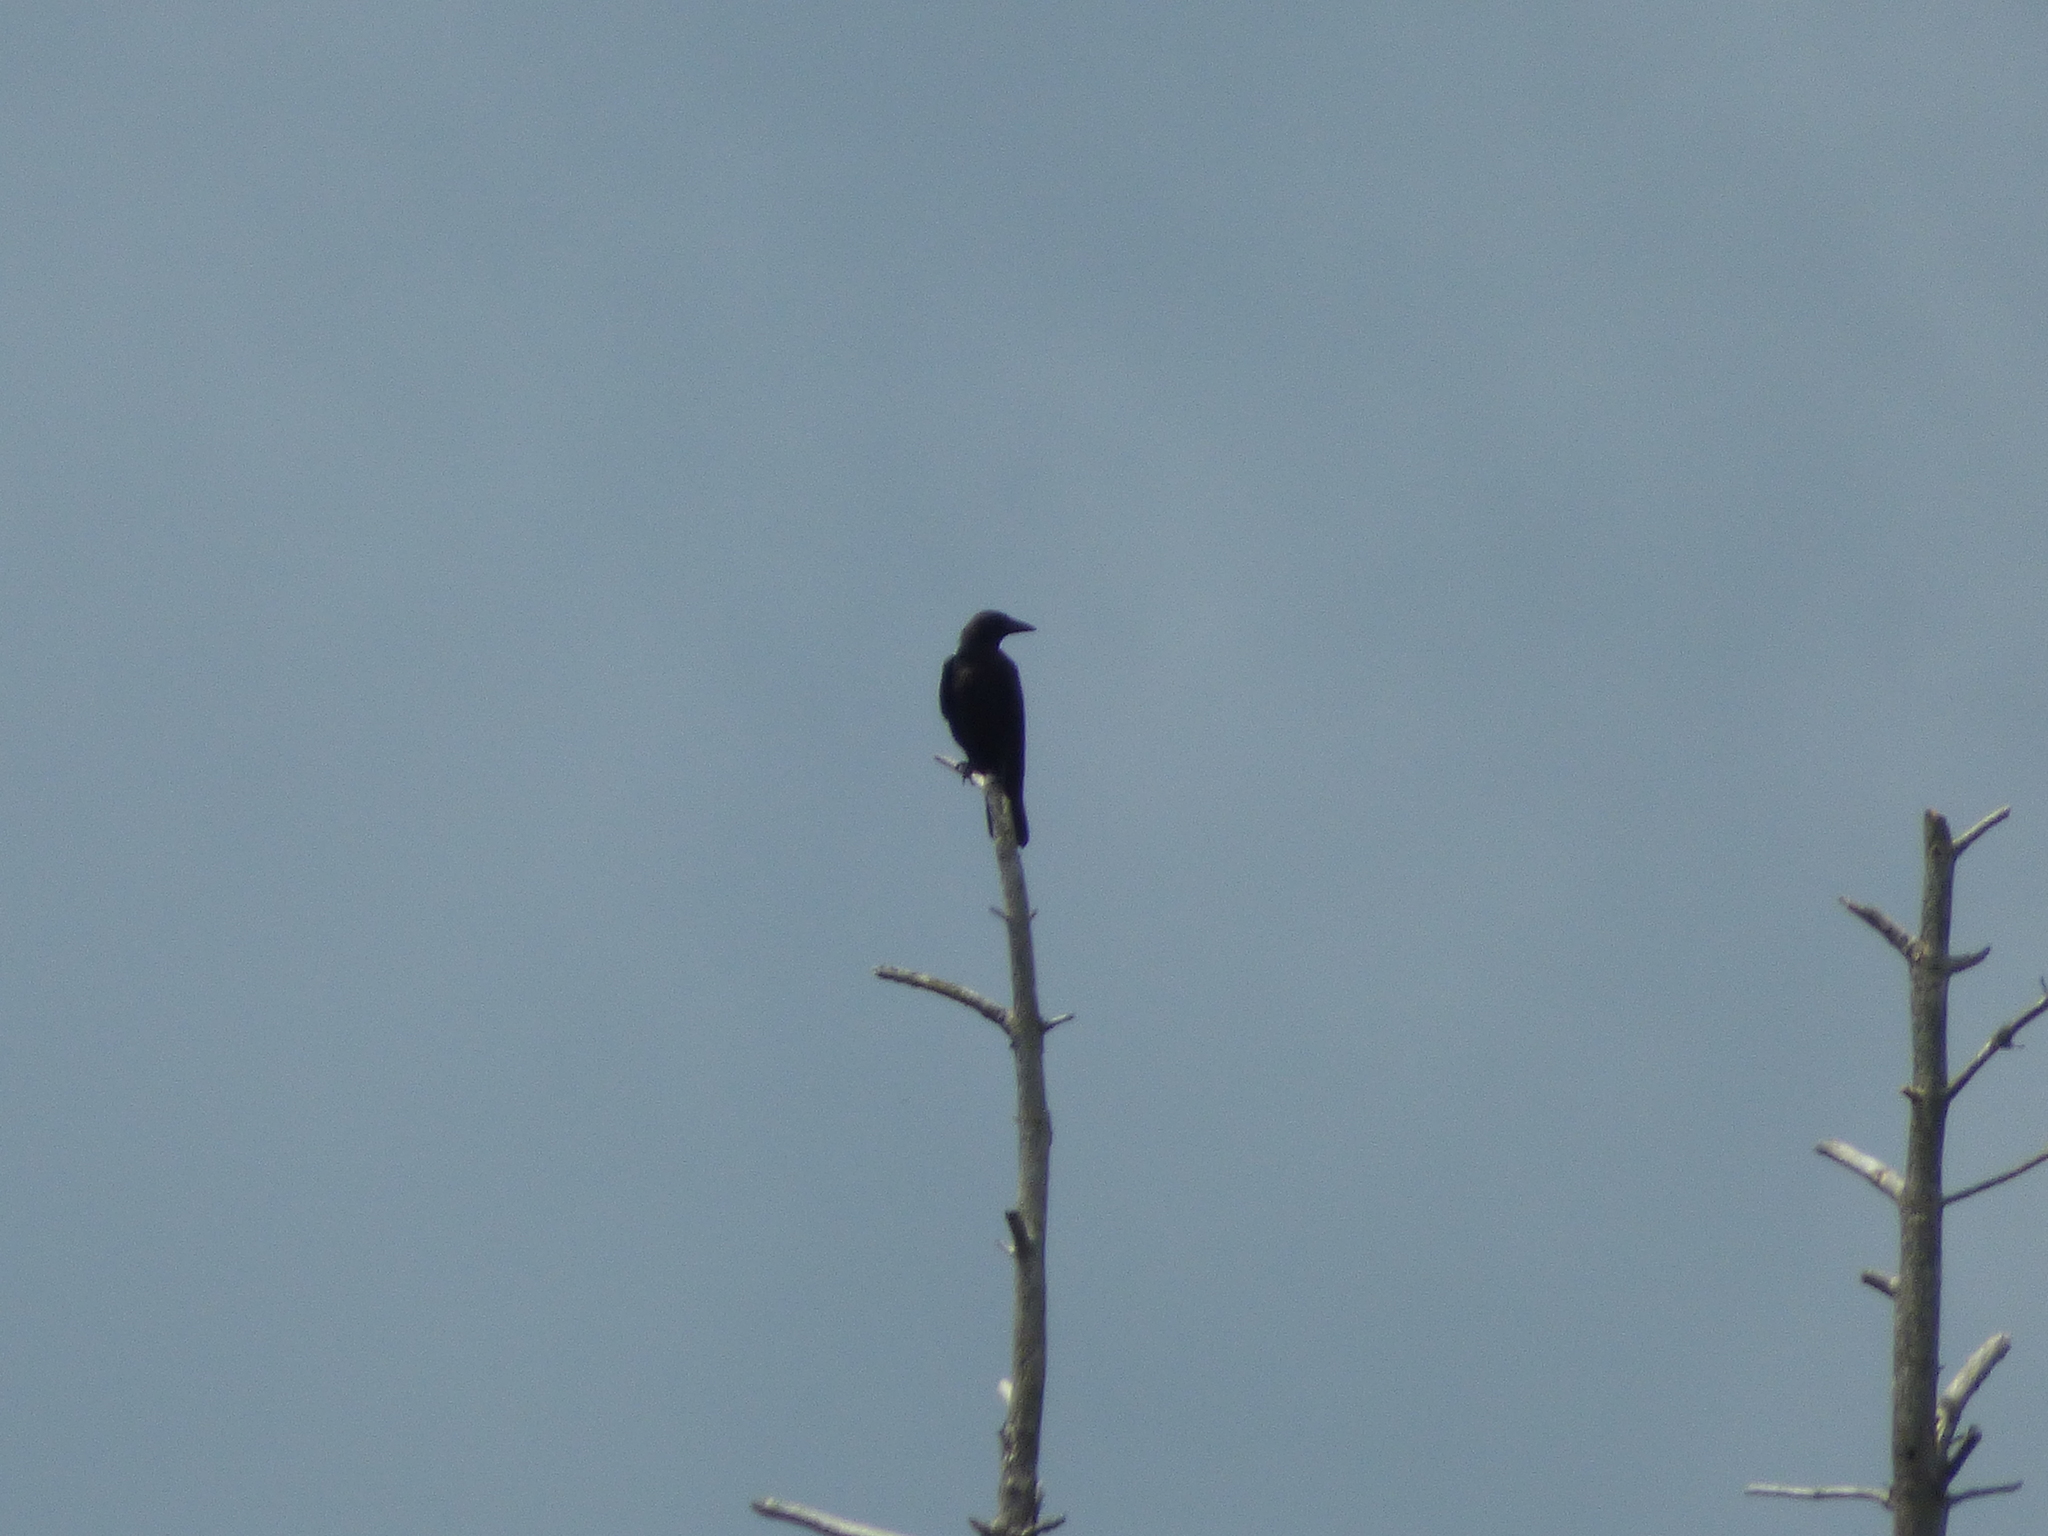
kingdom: Animalia
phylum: Chordata
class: Aves
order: Passeriformes
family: Corvidae
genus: Corvus
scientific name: Corvus brachyrhynchos
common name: American crow
